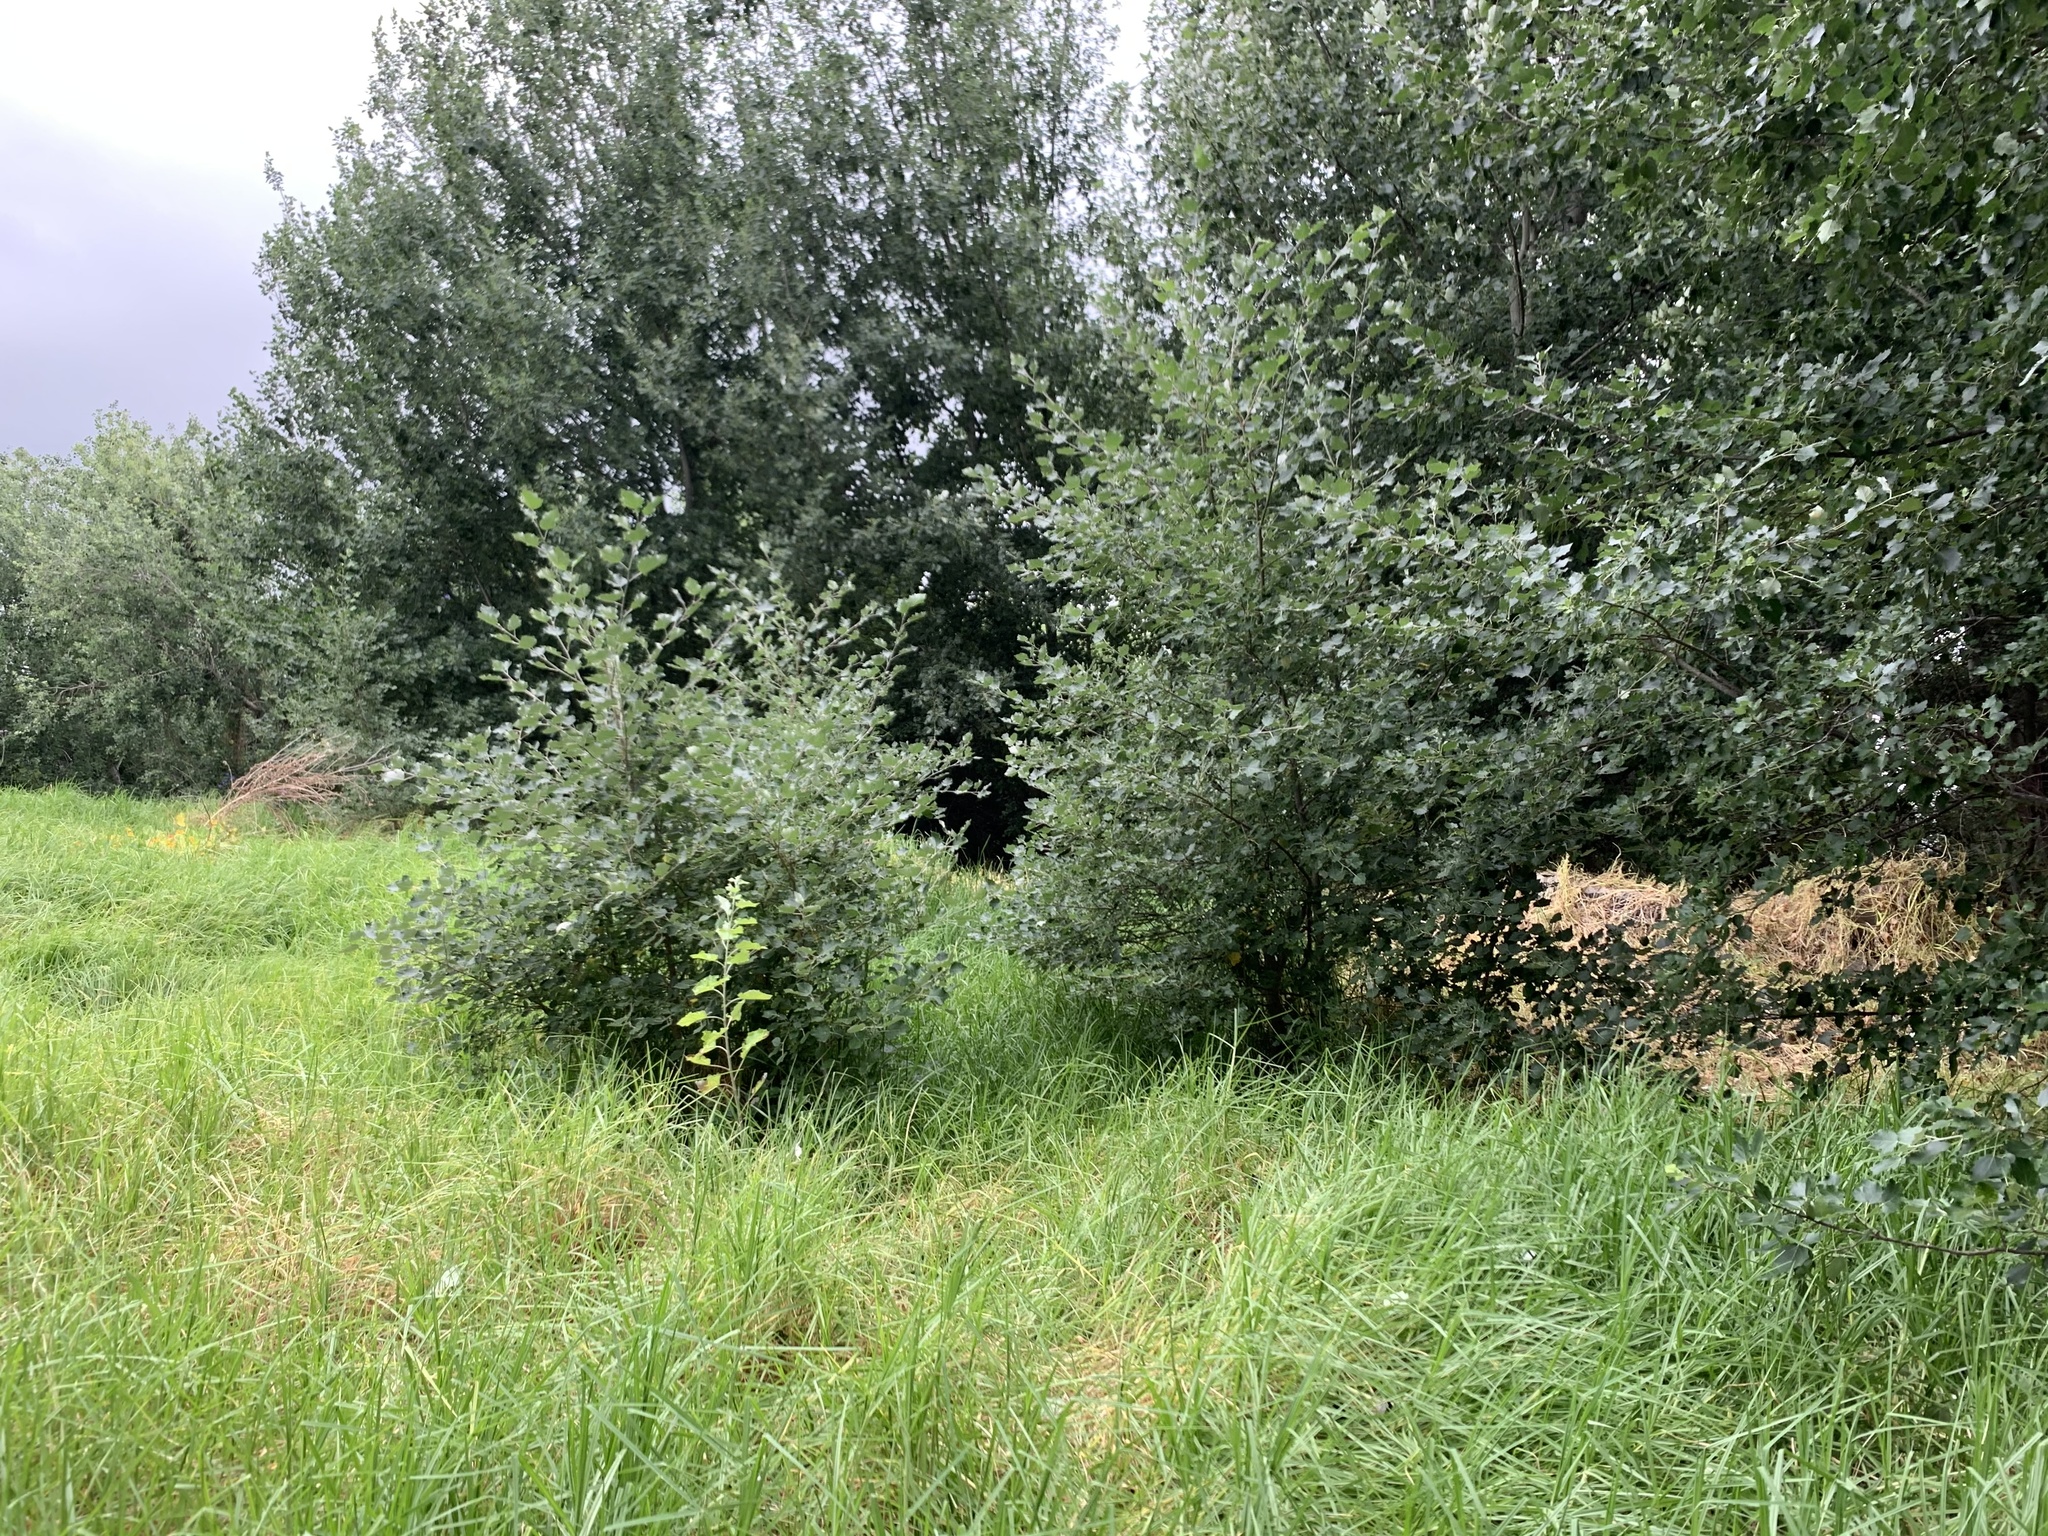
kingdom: Plantae
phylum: Tracheophyta
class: Magnoliopsida
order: Malpighiales
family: Salicaceae
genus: Populus
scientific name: Populus canescens
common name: Gray poplar
